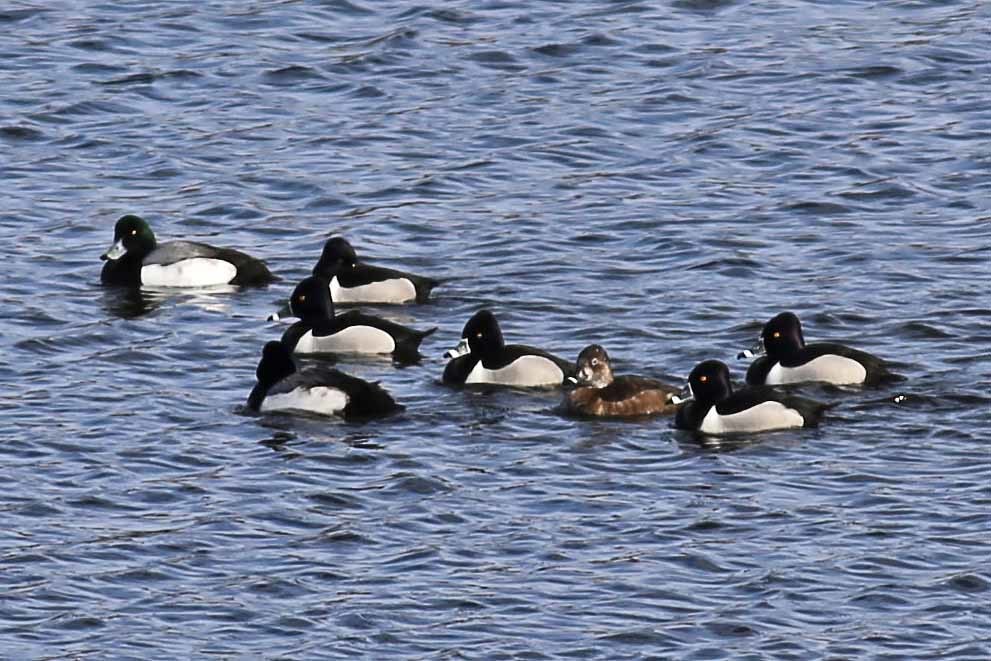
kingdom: Animalia
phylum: Chordata
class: Aves
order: Anseriformes
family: Anatidae
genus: Aythya
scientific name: Aythya marila
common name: Greater scaup
